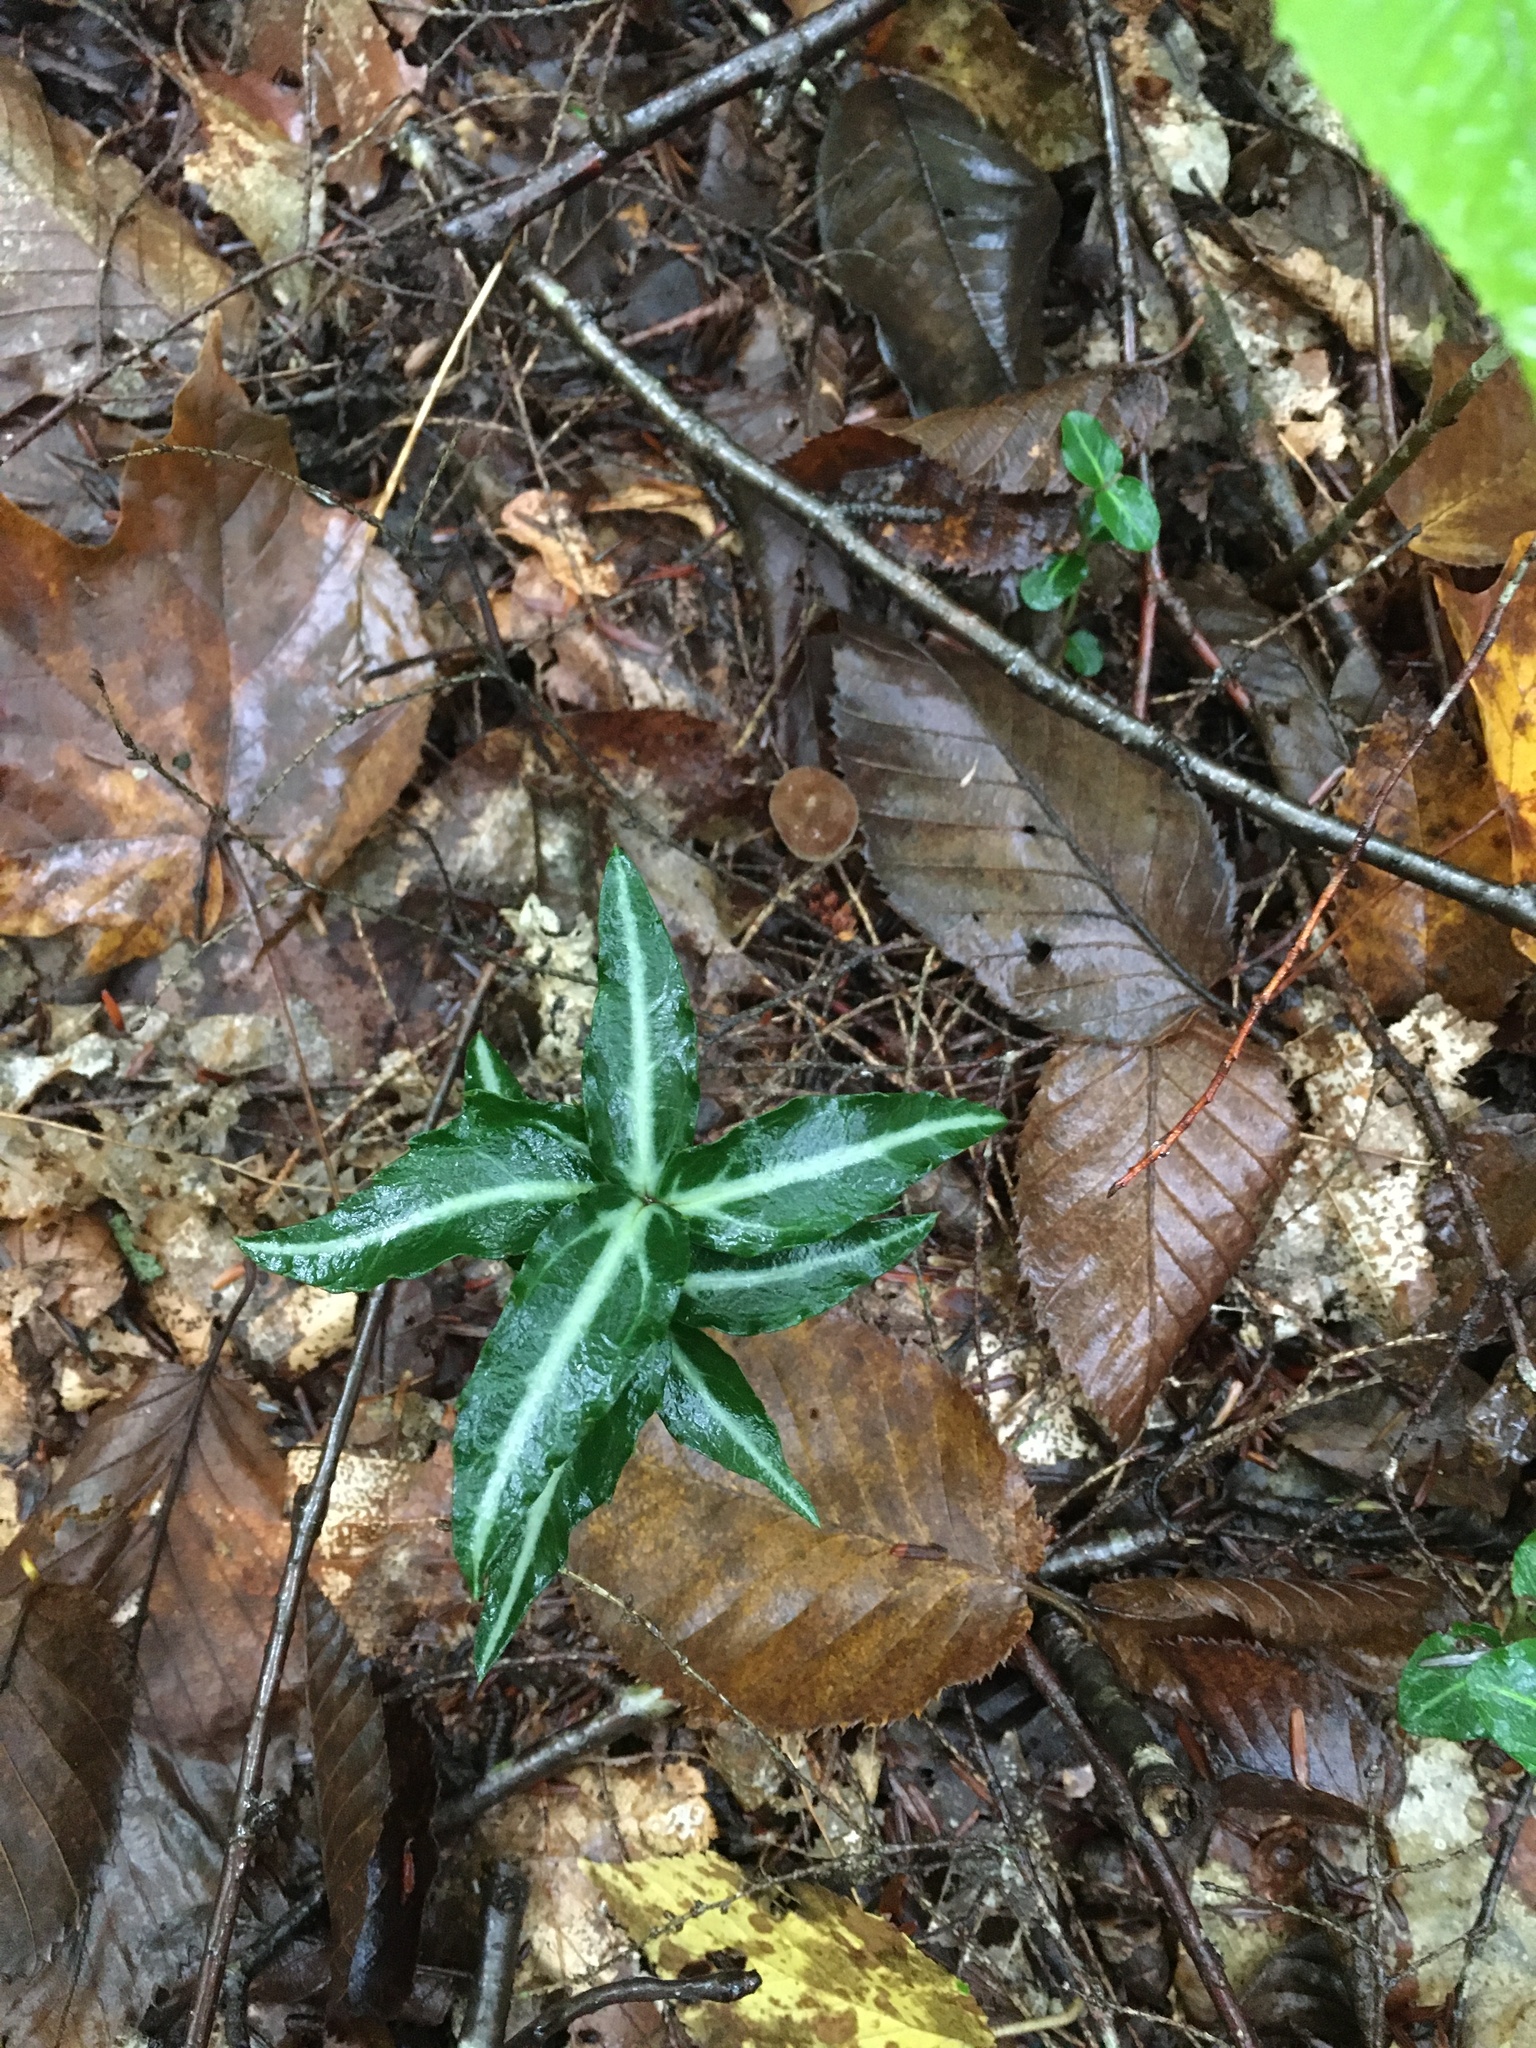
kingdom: Plantae
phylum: Tracheophyta
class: Magnoliopsida
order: Ericales
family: Ericaceae
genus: Chimaphila
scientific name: Chimaphila maculata
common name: Spotted pipsissewa
